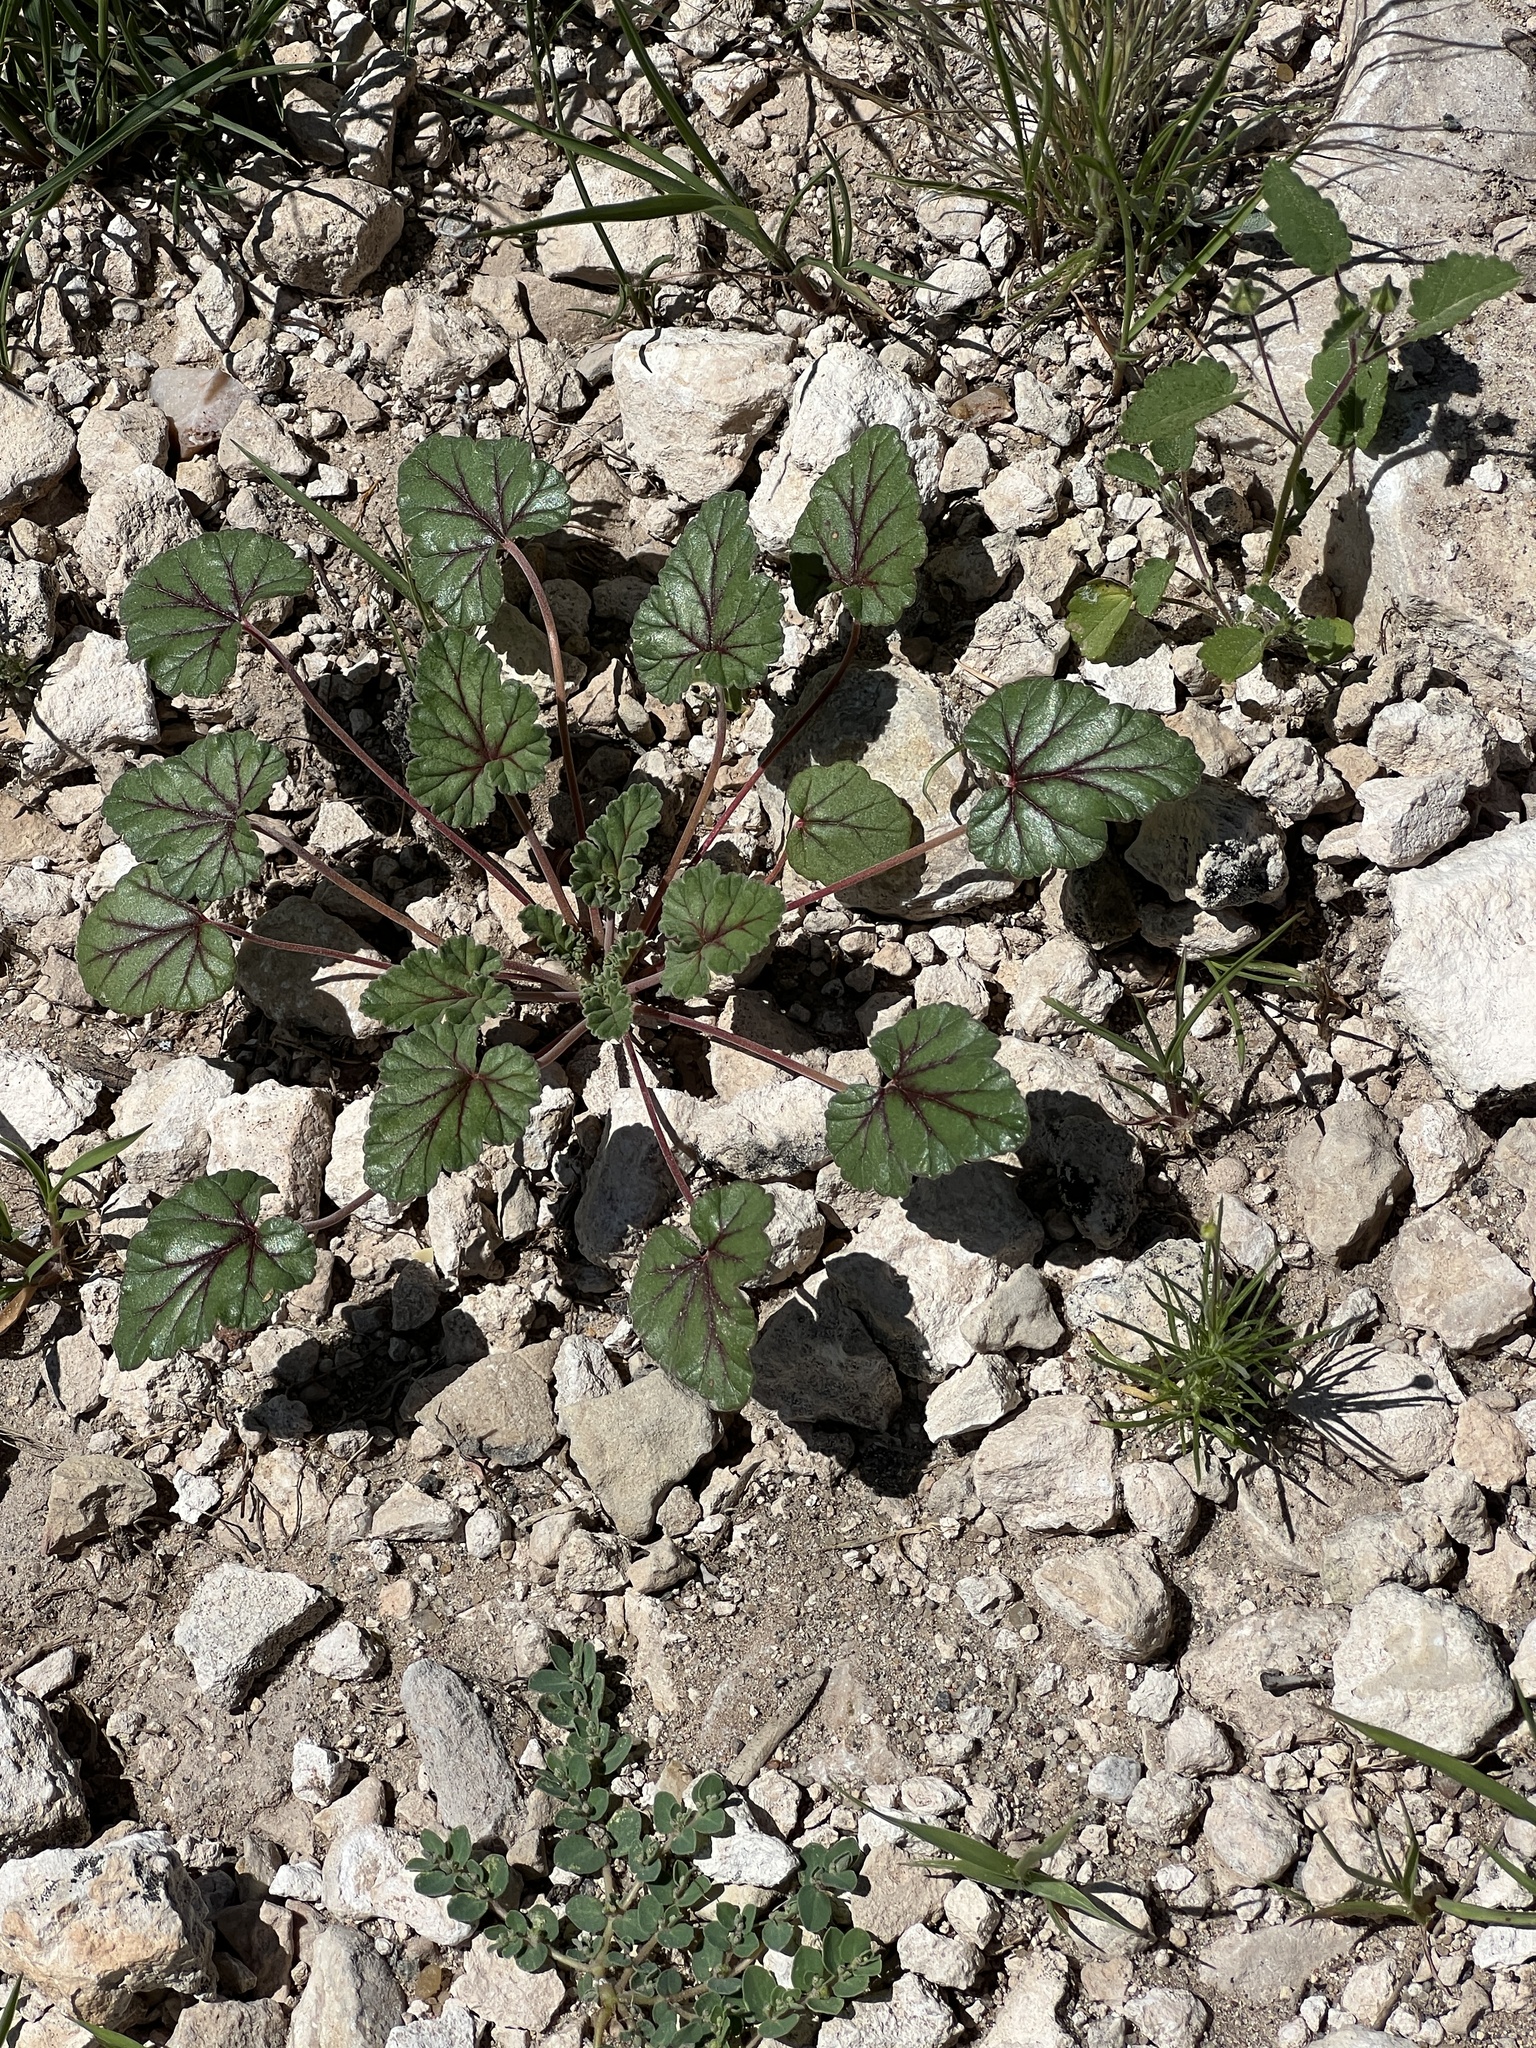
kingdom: Plantae
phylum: Tracheophyta
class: Magnoliopsida
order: Geraniales
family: Geraniaceae
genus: Erodium
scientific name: Erodium texanum
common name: Texas stork's-bill
